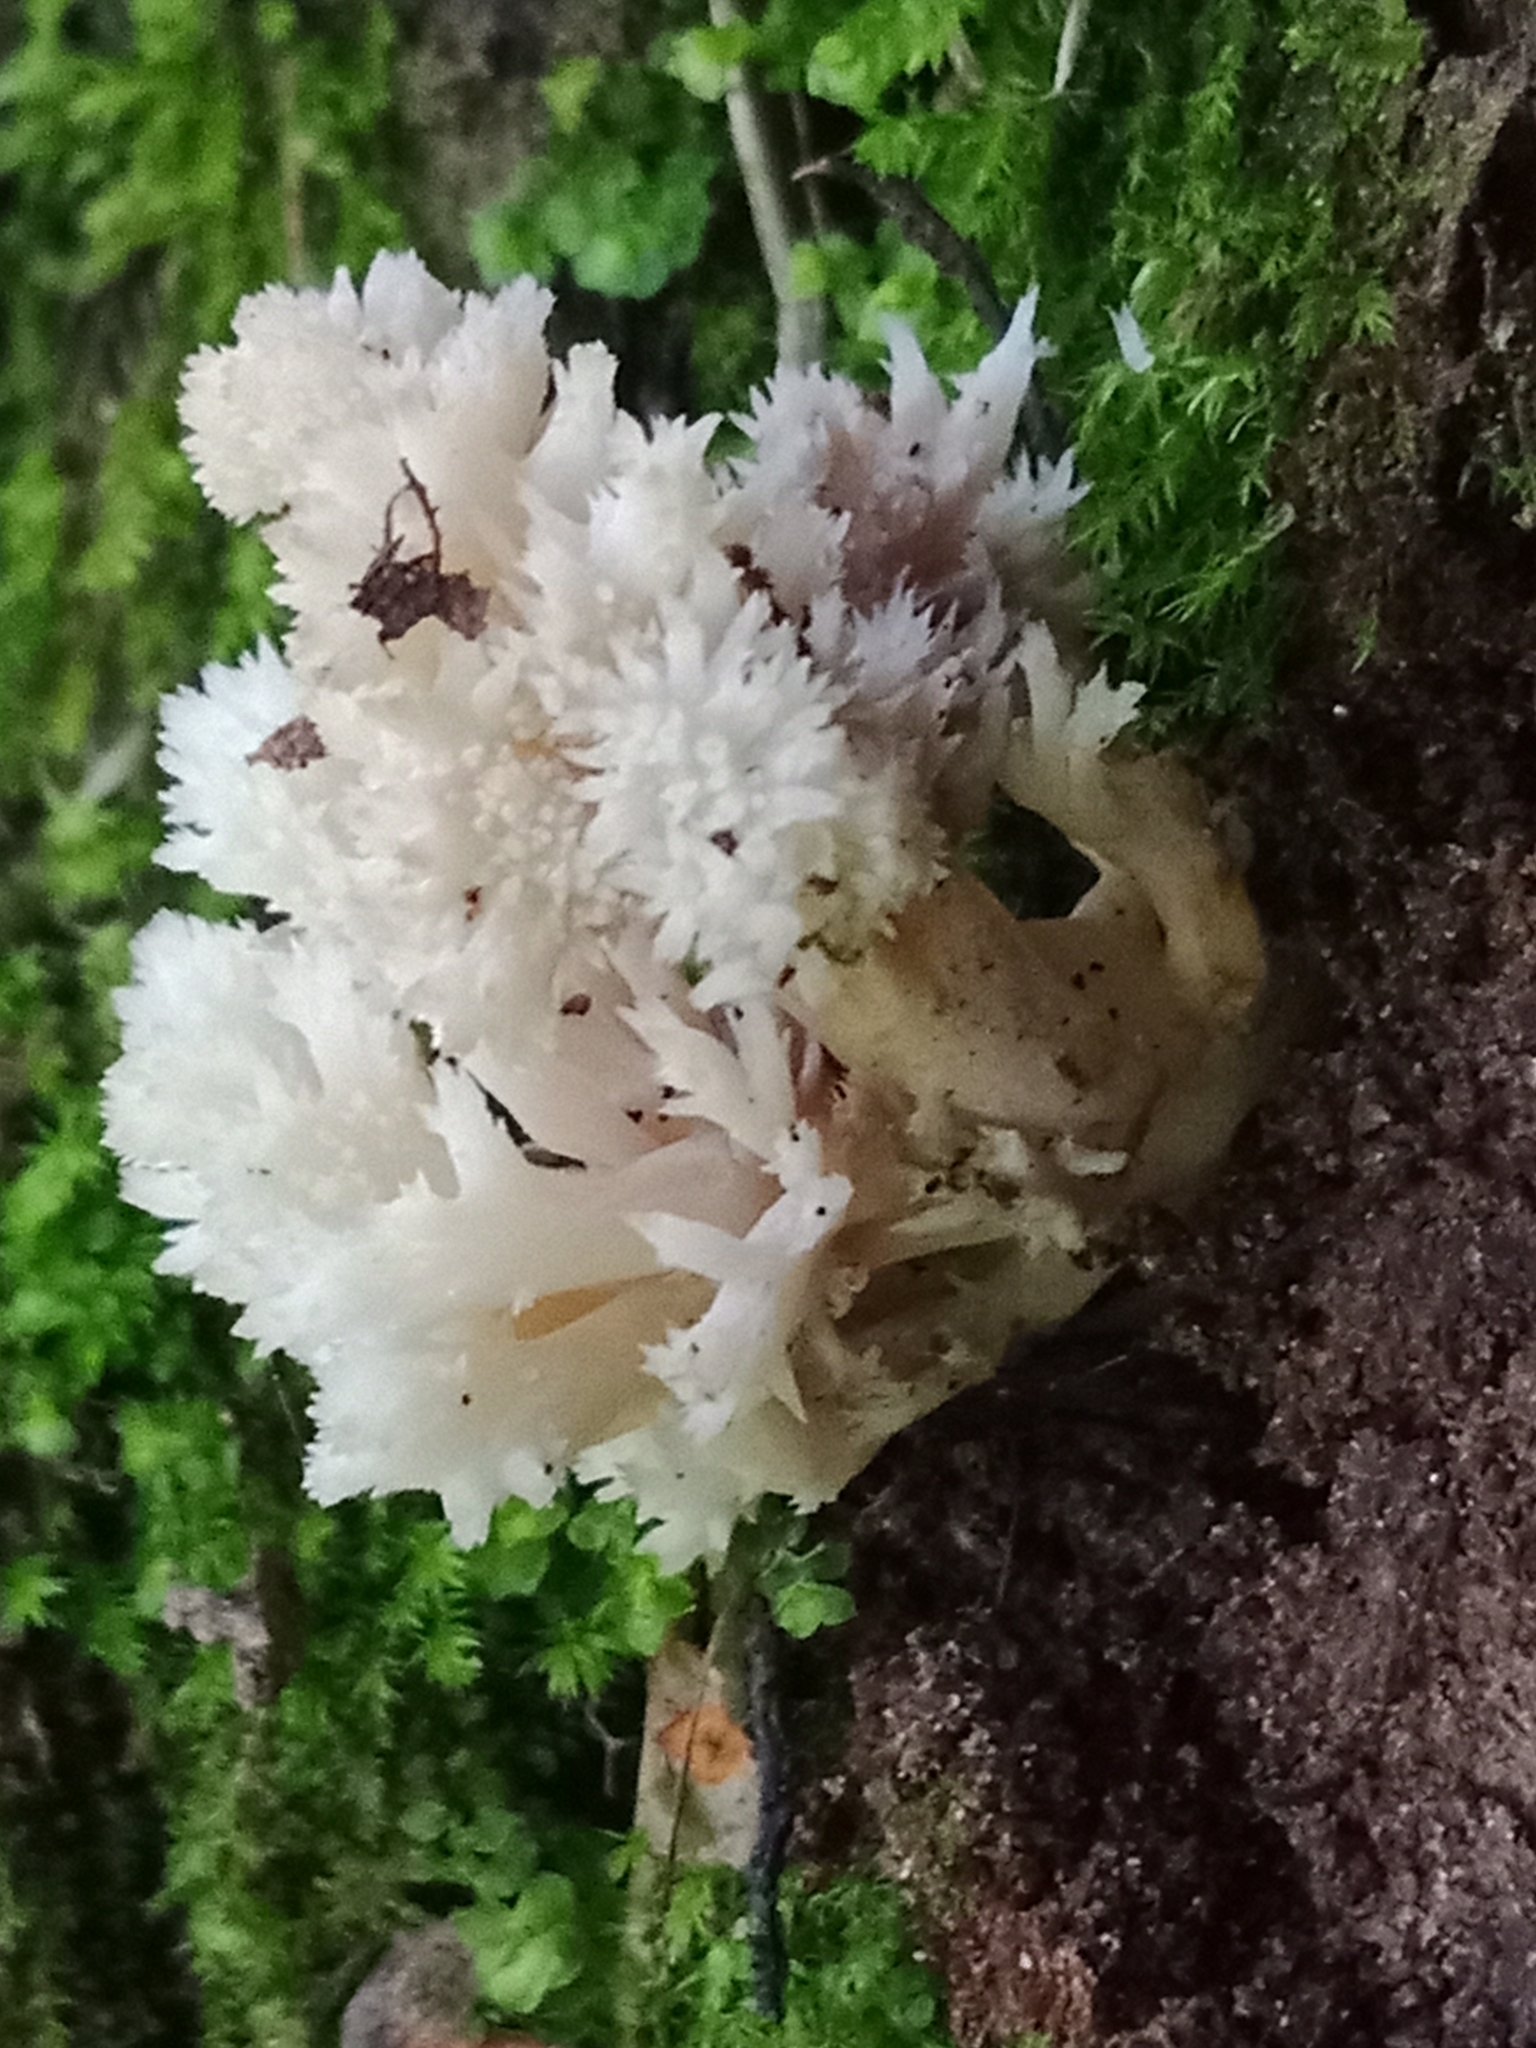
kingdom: Fungi
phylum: Basidiomycota
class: Agaricomycetes
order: Cantharellales
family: Hydnaceae
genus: Clavulina
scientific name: Clavulina coralloides
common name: Crested coral
